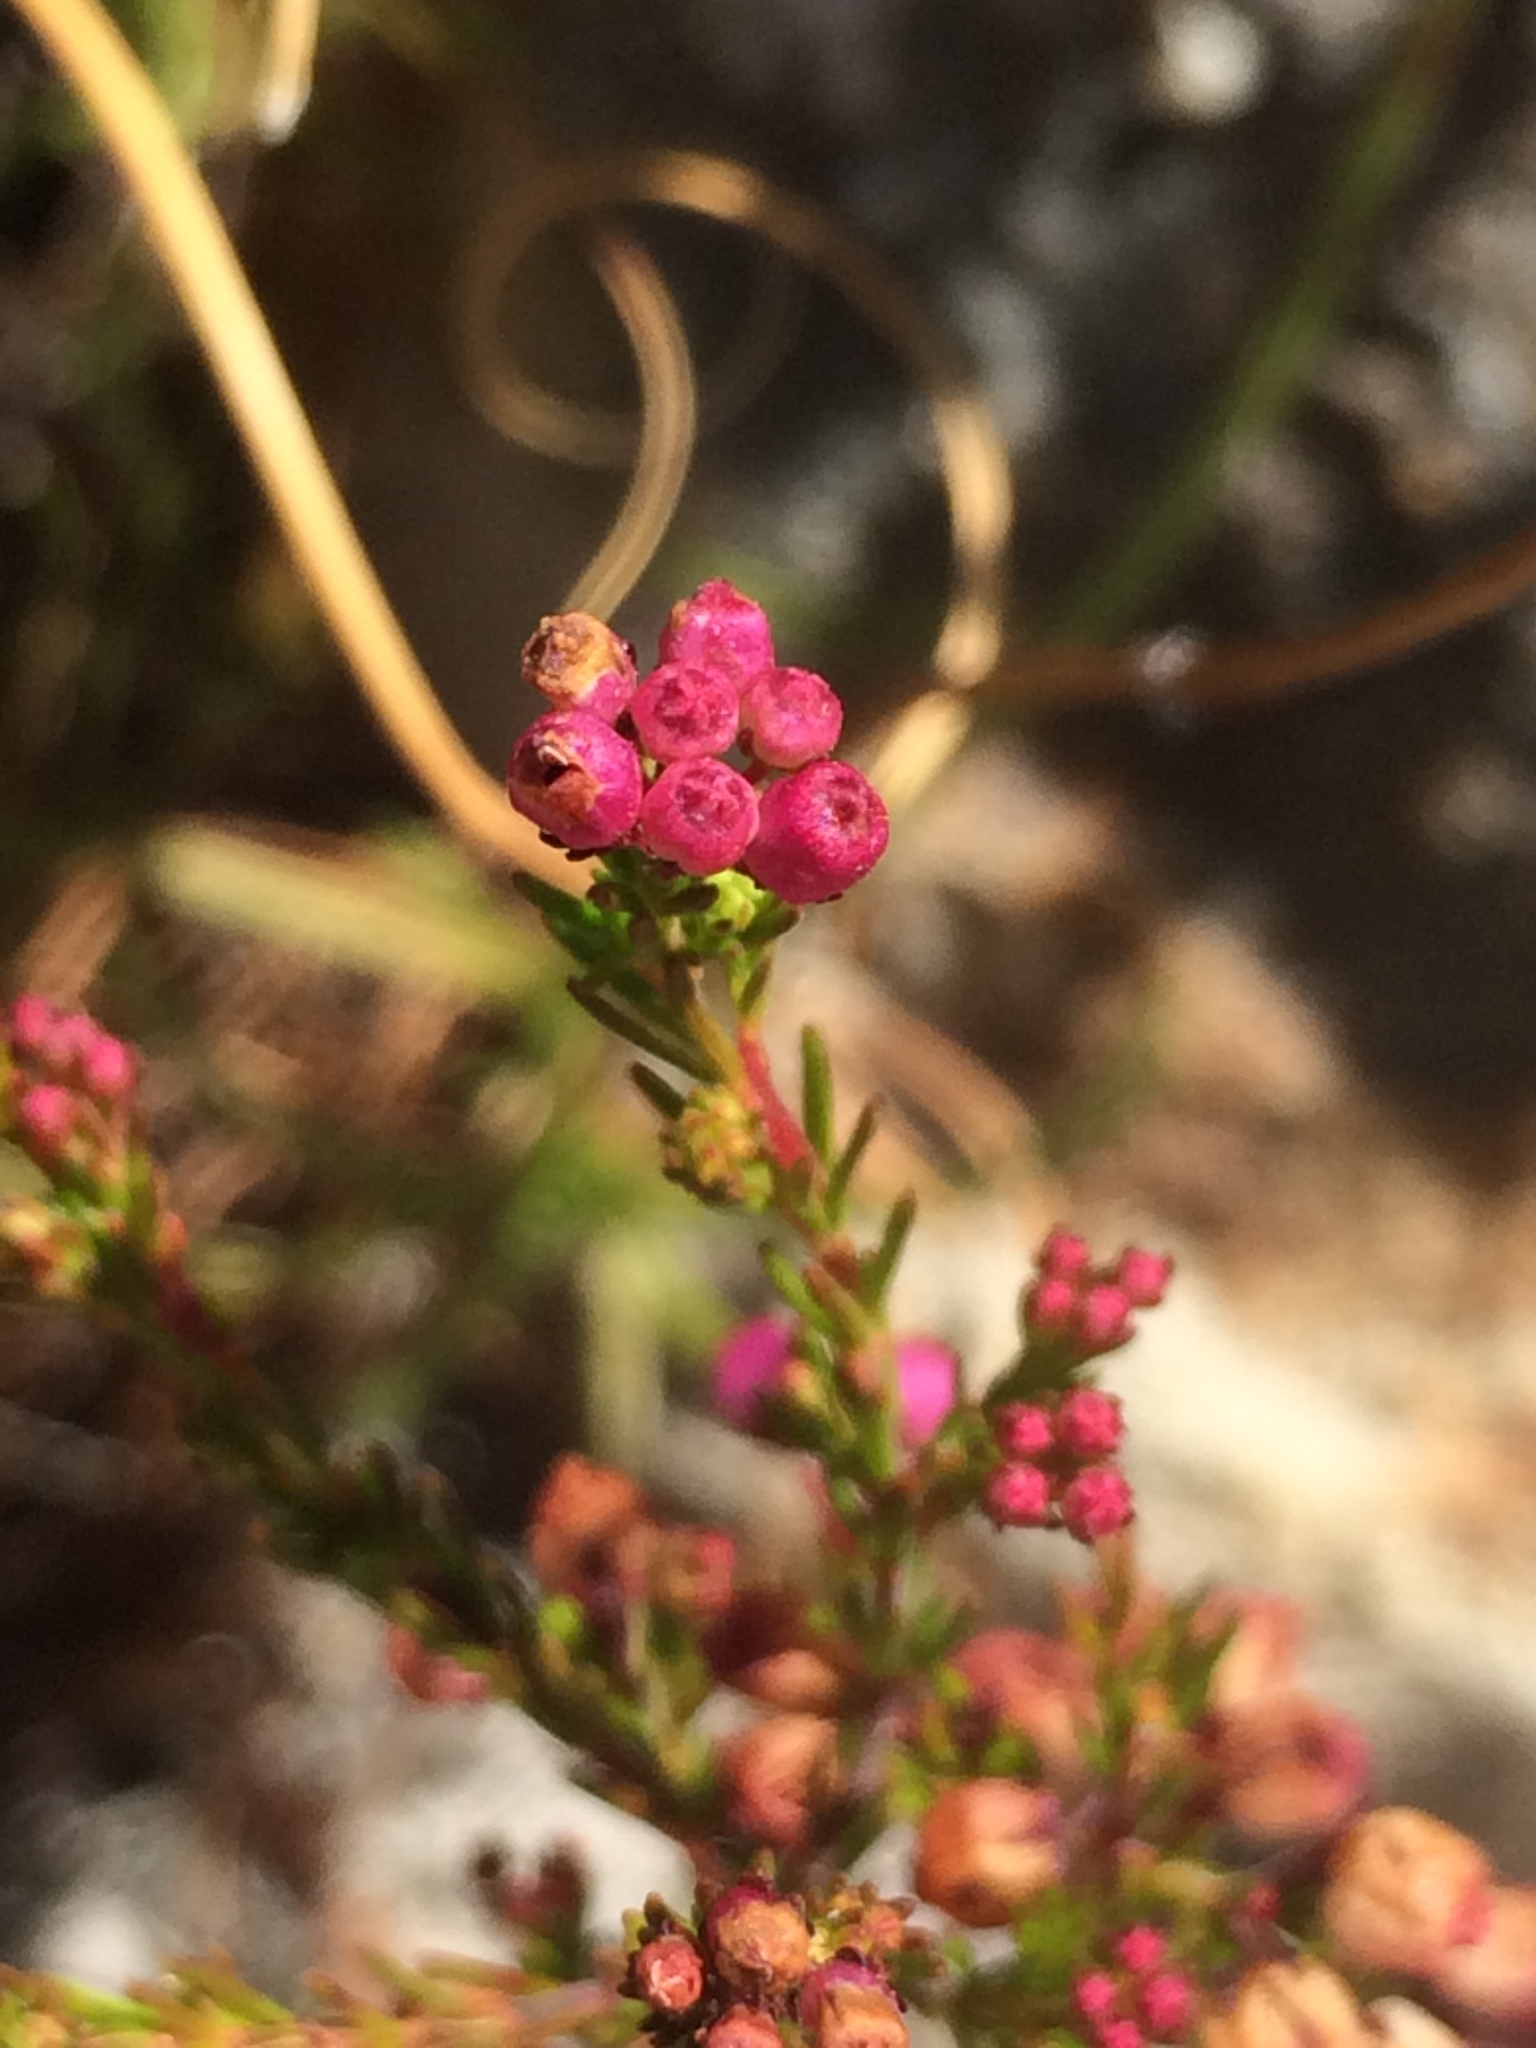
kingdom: Plantae
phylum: Tracheophyta
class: Magnoliopsida
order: Ericales
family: Ericaceae
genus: Erica
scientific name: Erica multumbellifera
